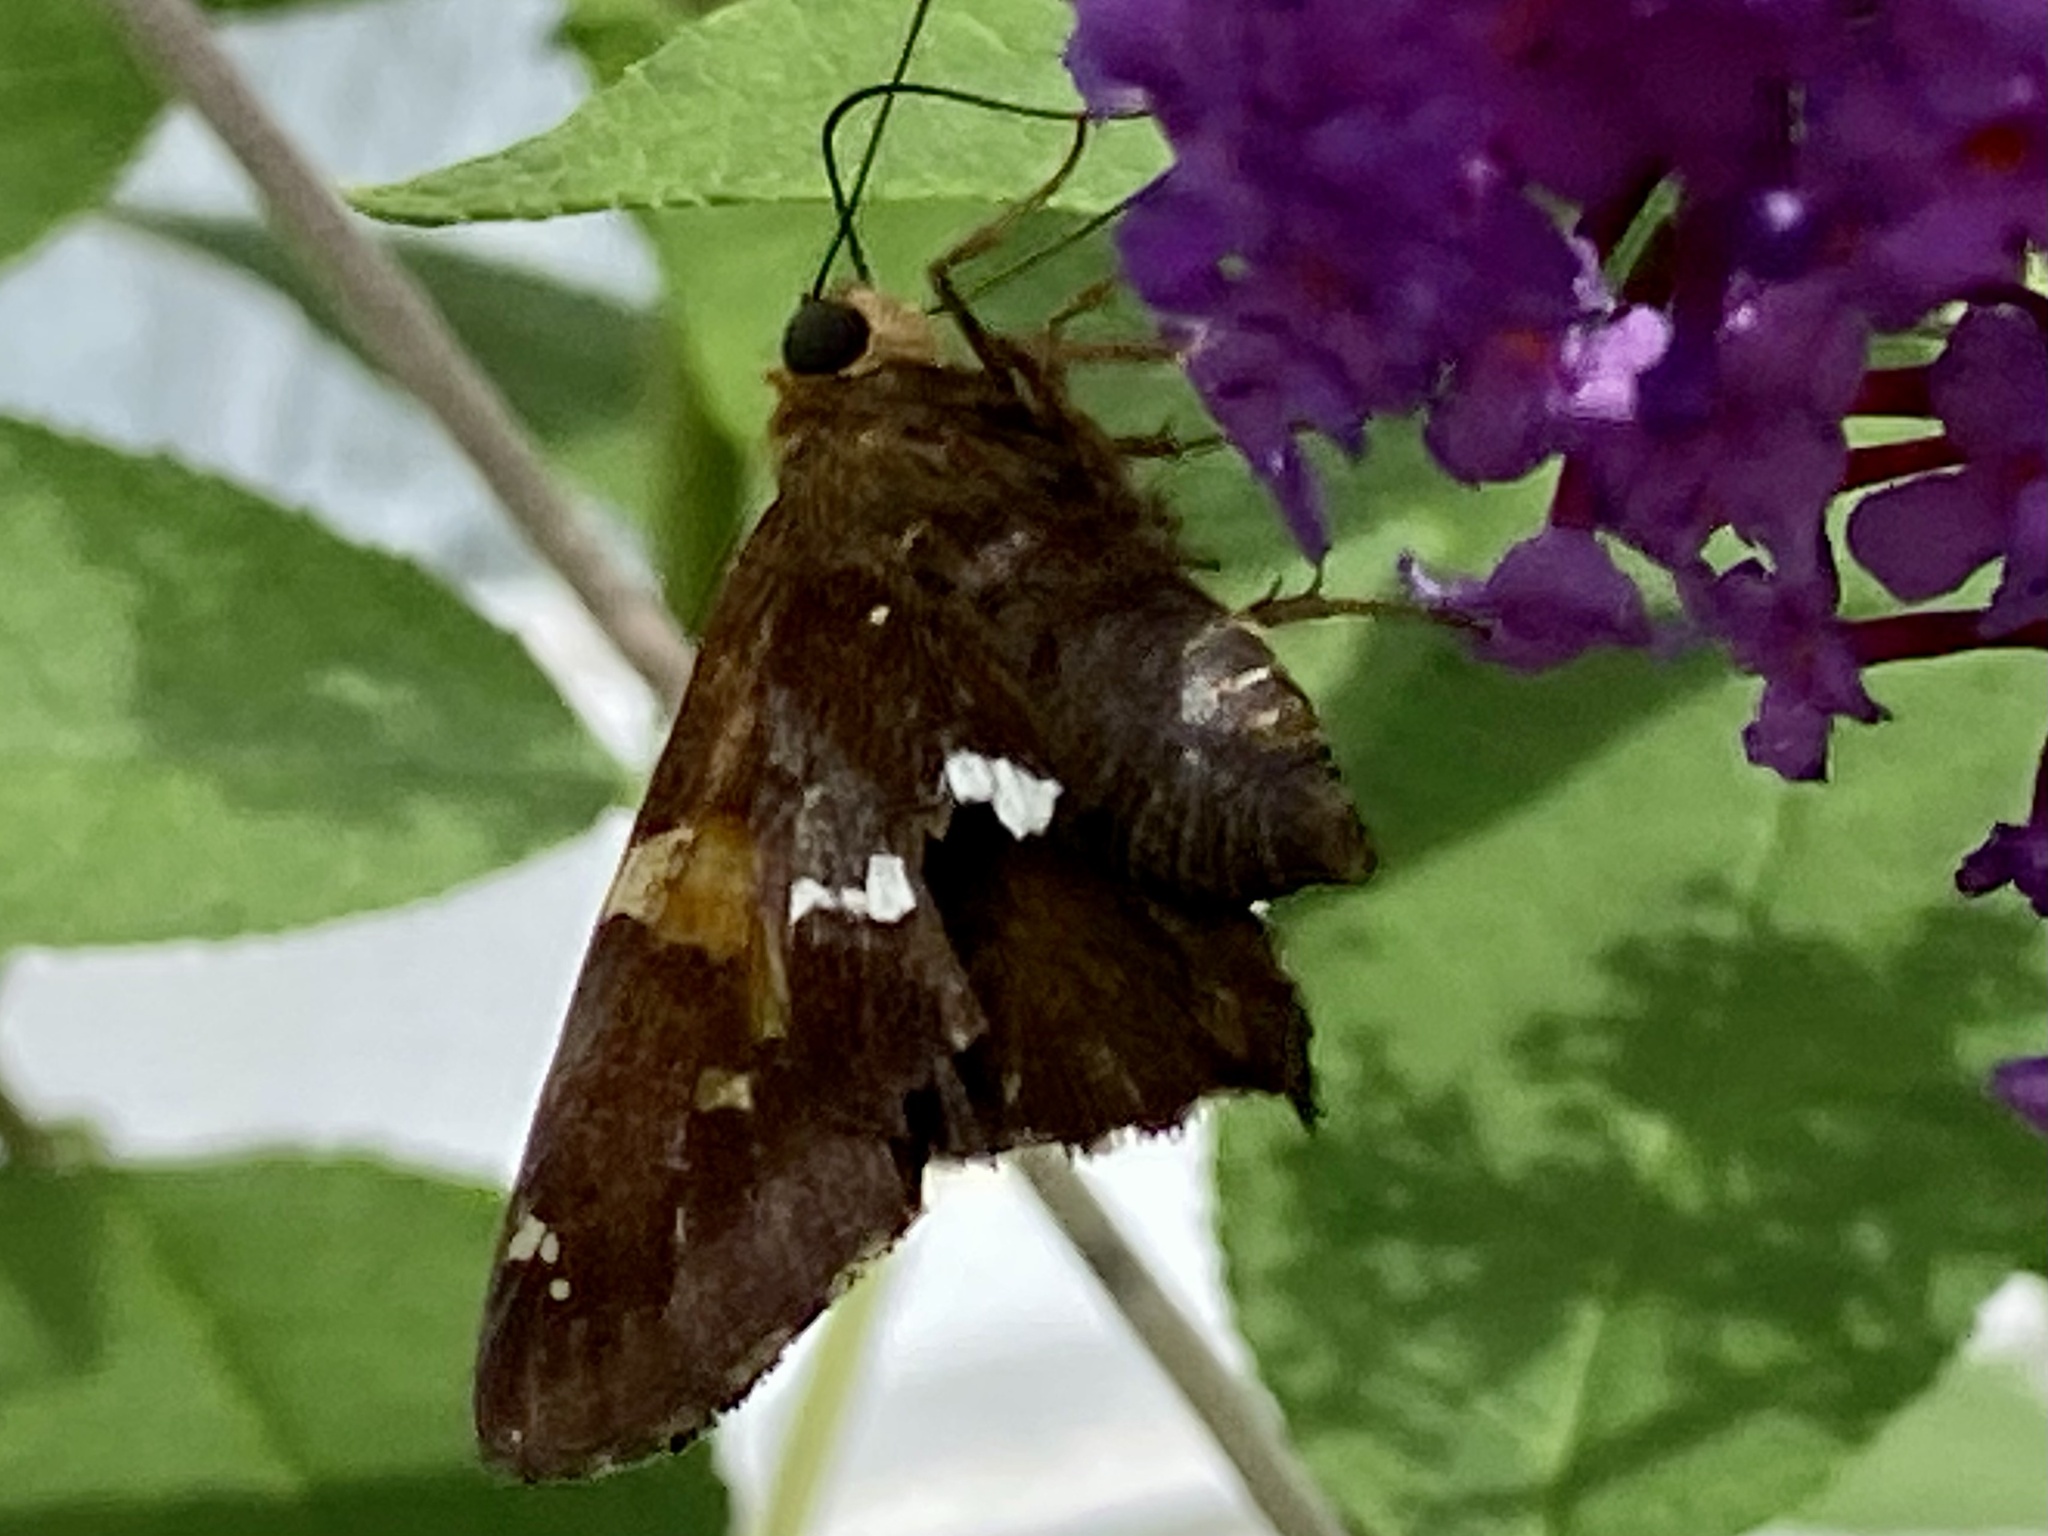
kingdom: Animalia
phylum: Arthropoda
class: Insecta
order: Lepidoptera
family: Hesperiidae
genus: Epargyreus
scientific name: Epargyreus clarus
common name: Silver-spotted skipper
